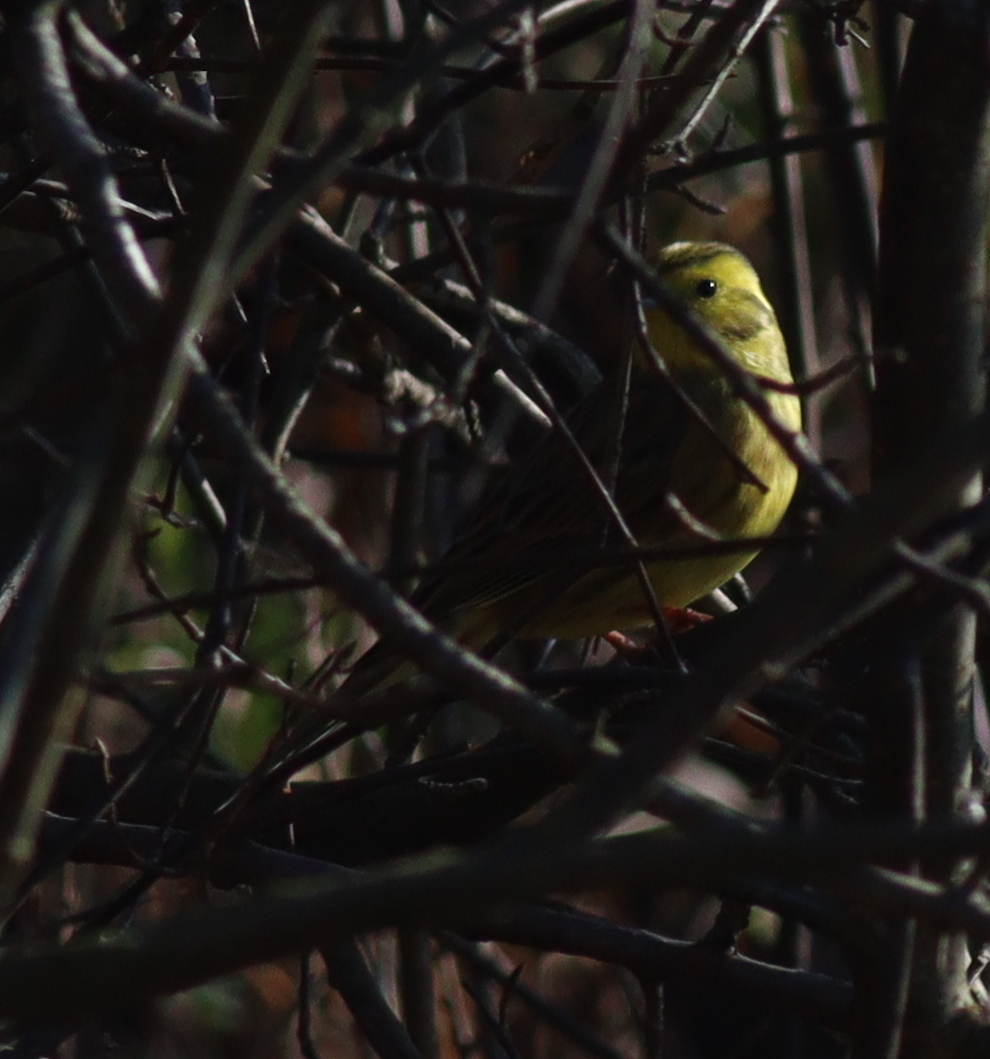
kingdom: Animalia
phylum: Chordata
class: Aves
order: Passeriformes
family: Emberizidae
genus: Emberiza
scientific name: Emberiza citrinella
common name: Yellowhammer
